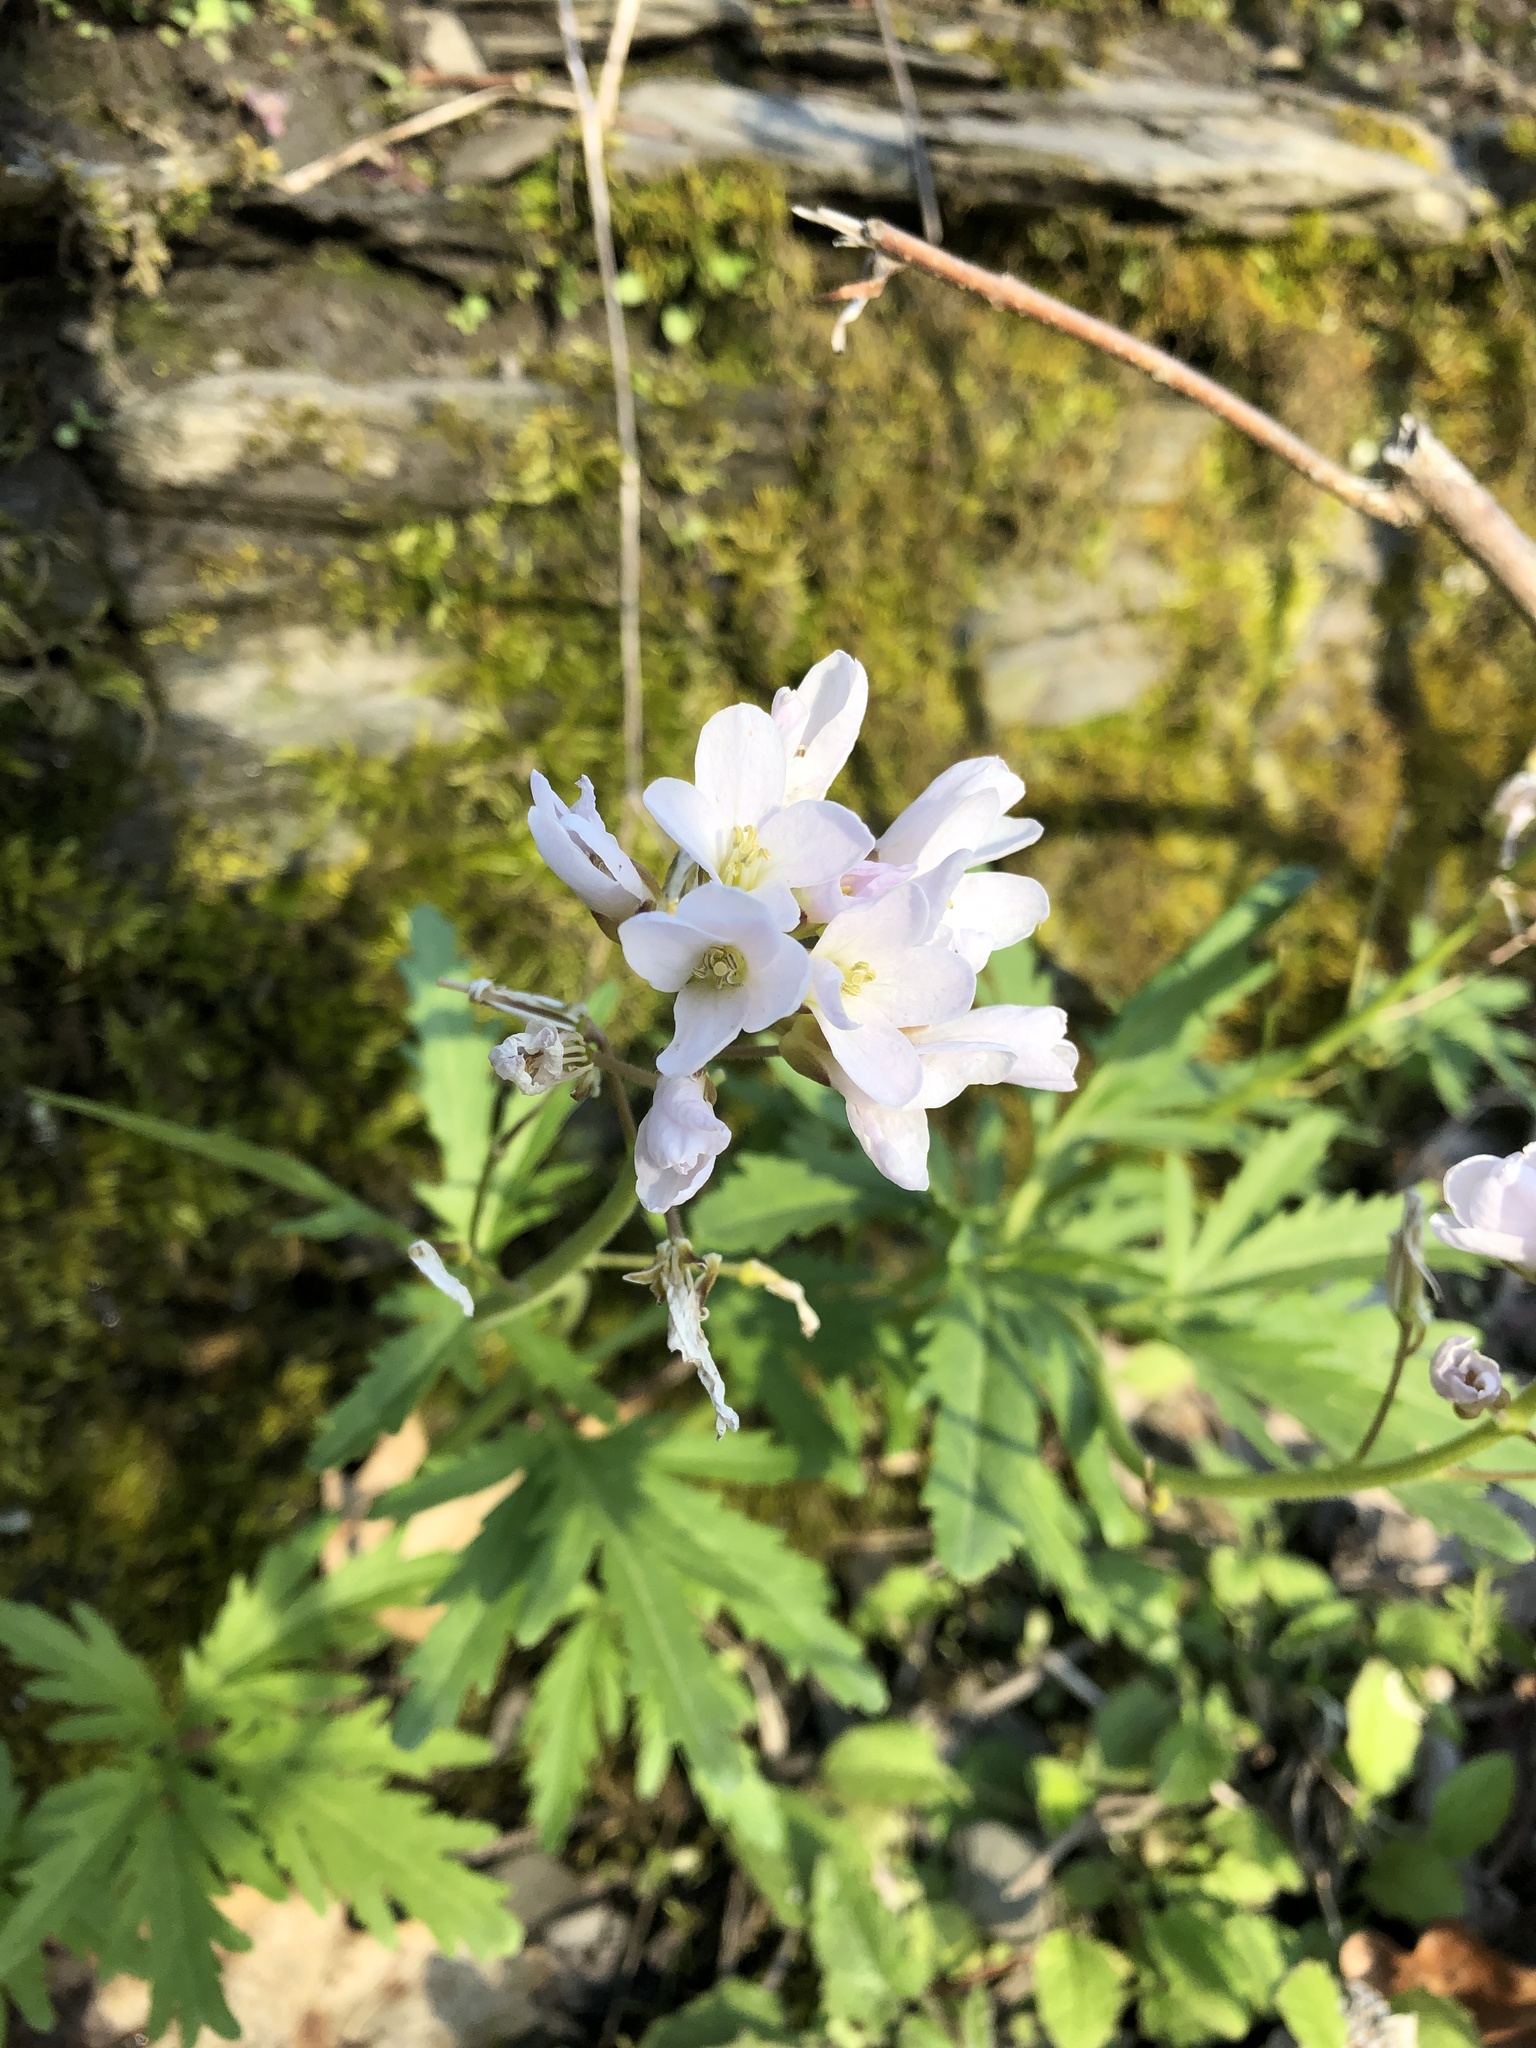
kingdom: Plantae
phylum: Tracheophyta
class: Magnoliopsida
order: Brassicales
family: Brassicaceae
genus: Cardamine
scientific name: Cardamine concatenata
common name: Cut-leaf toothcup
